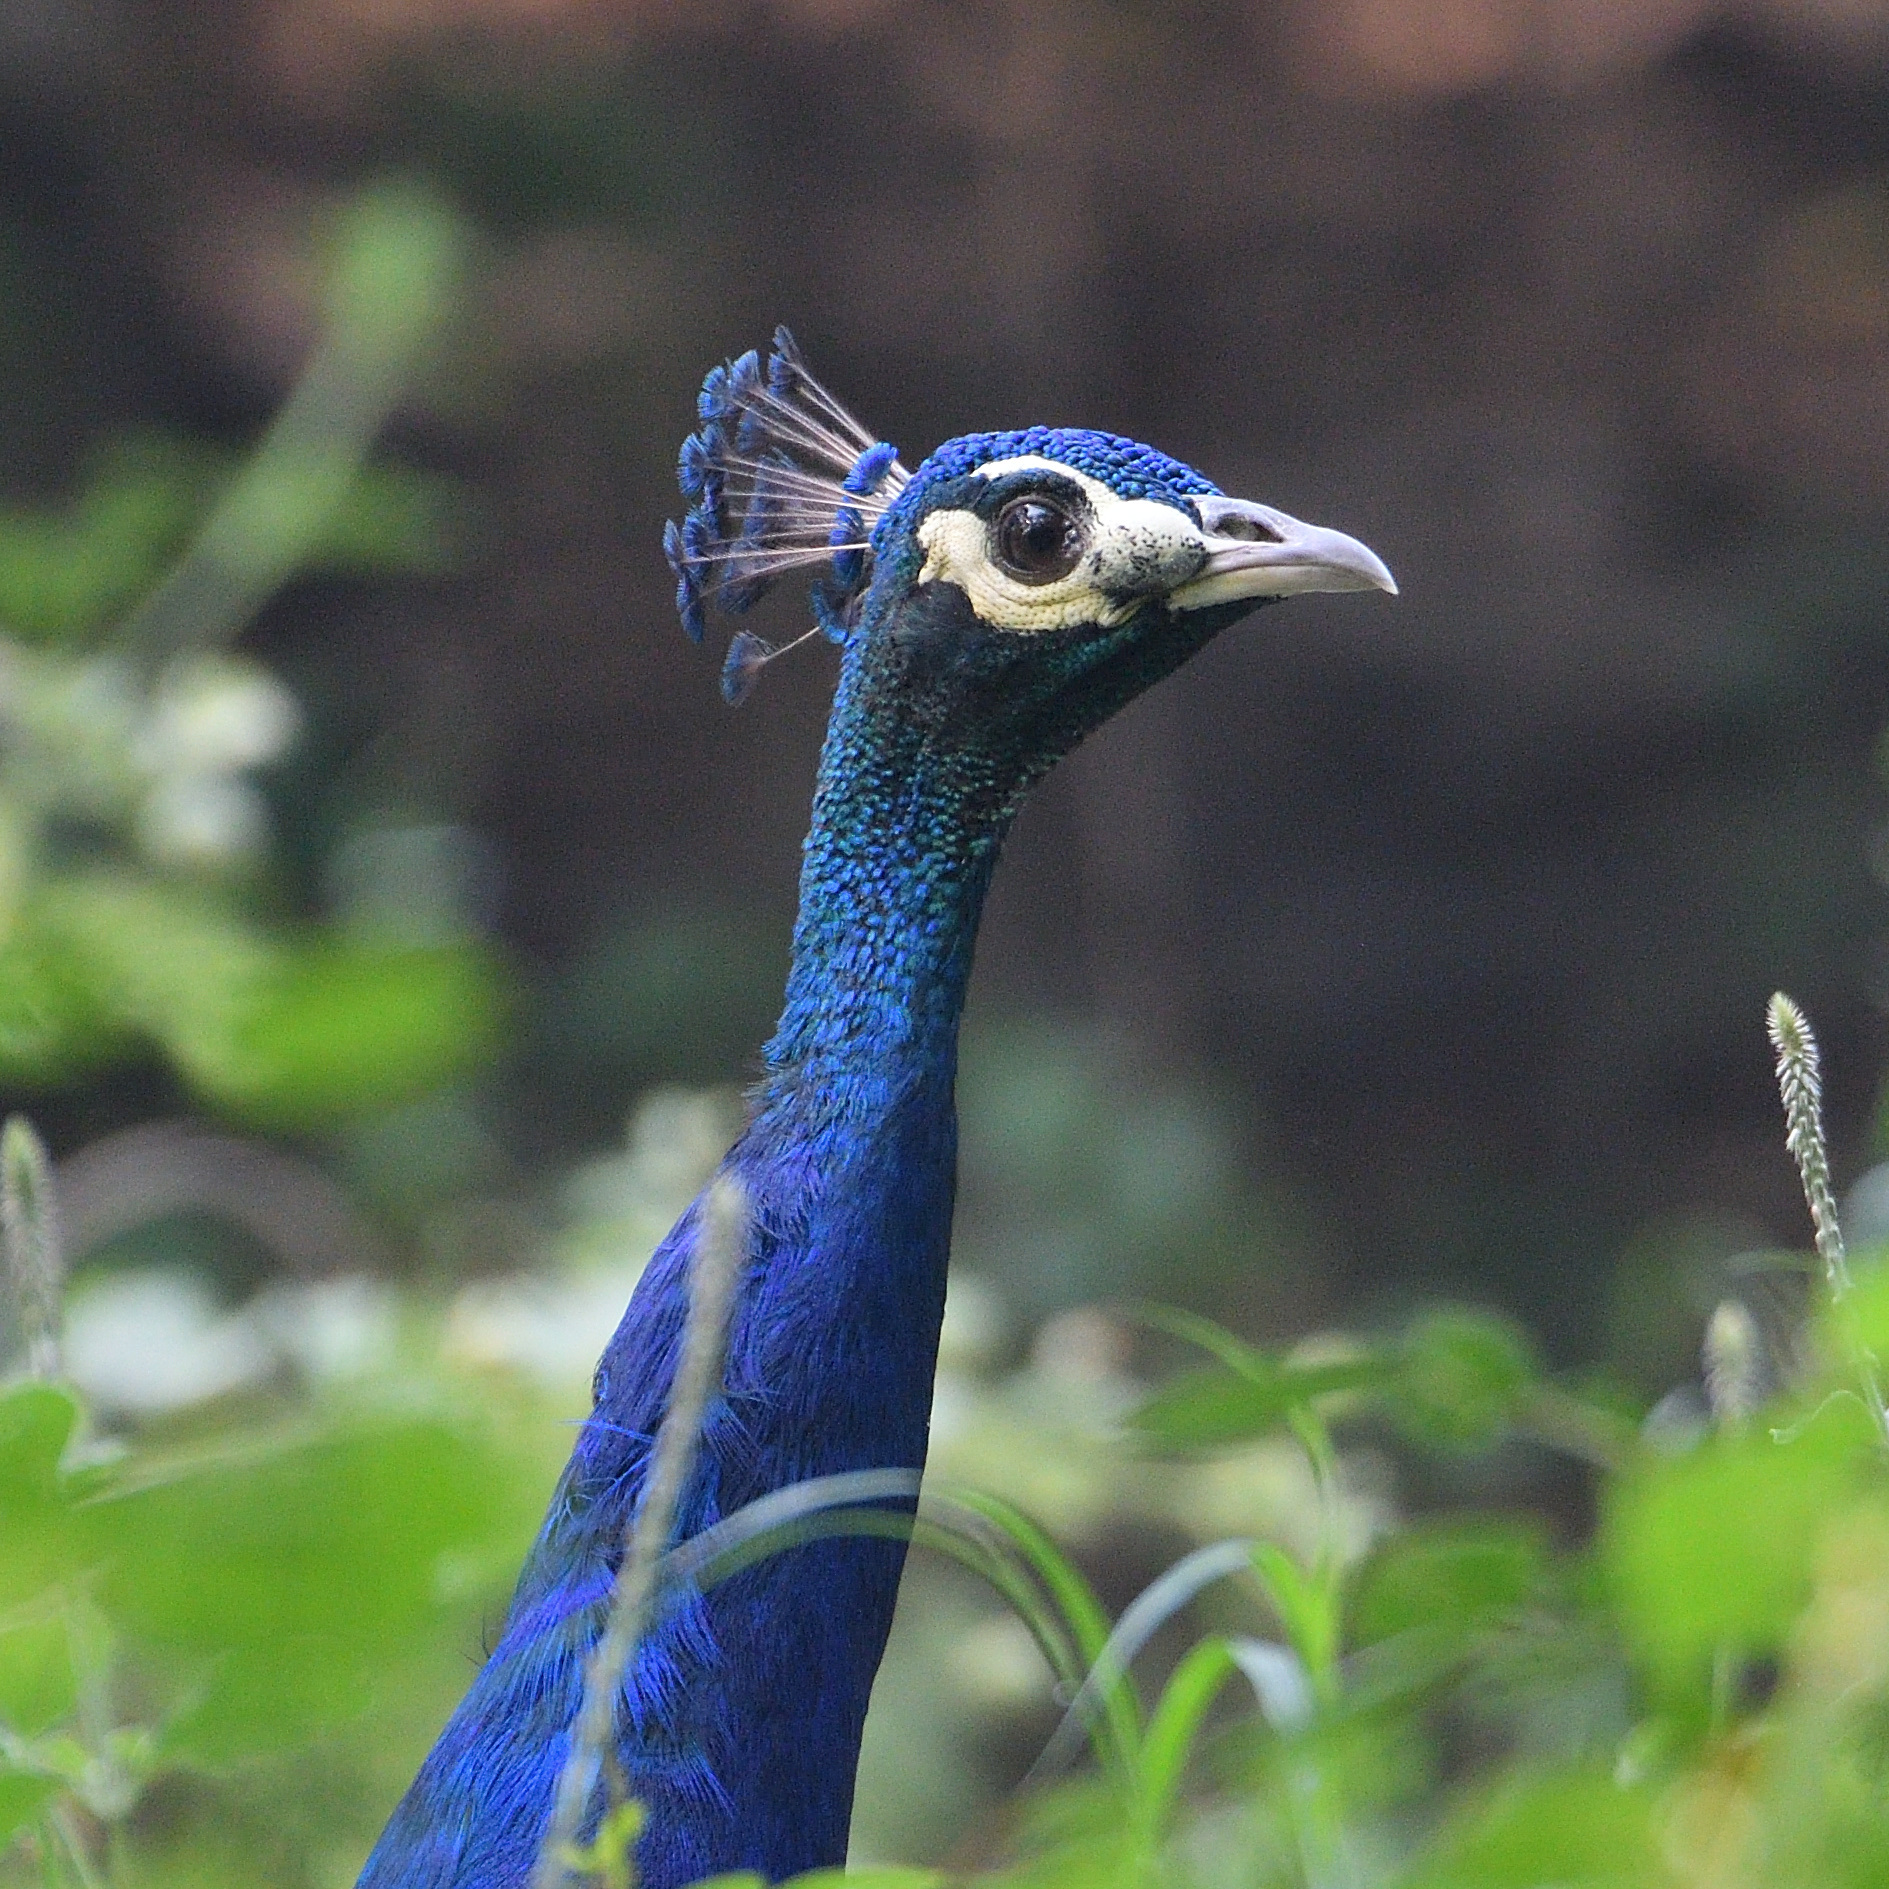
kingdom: Animalia
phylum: Chordata
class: Aves
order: Galliformes
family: Phasianidae
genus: Pavo
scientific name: Pavo cristatus
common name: Indian peafowl
